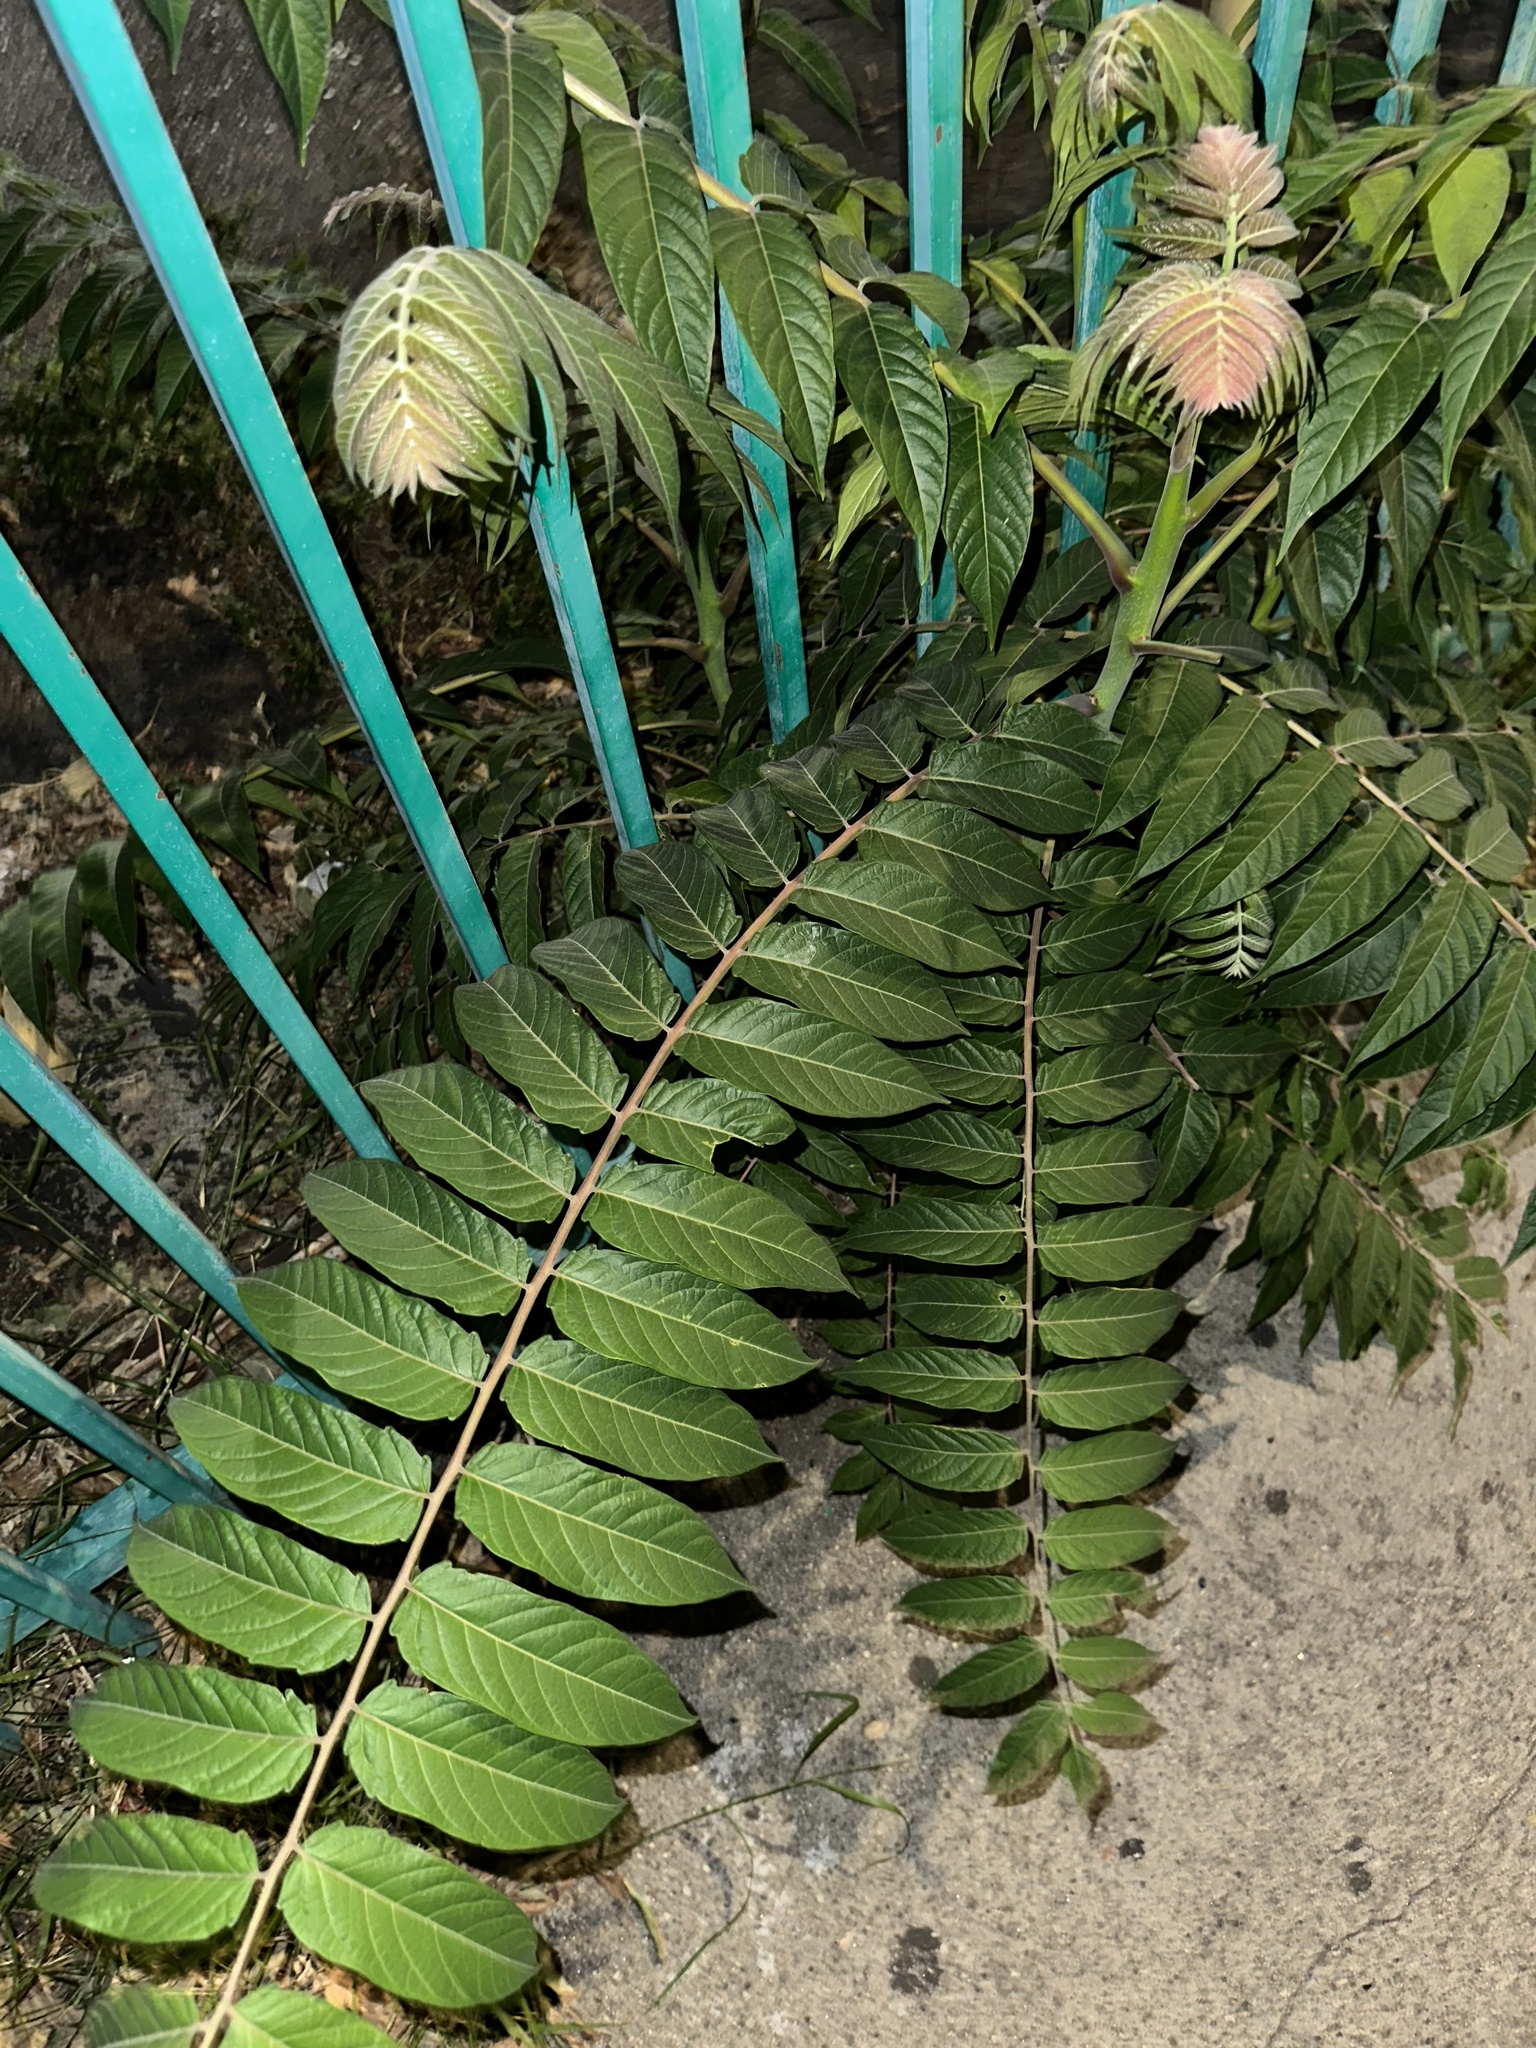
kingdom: Plantae
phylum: Tracheophyta
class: Magnoliopsida
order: Sapindales
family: Simaroubaceae
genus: Ailanthus
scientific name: Ailanthus altissima
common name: Tree-of-heaven
